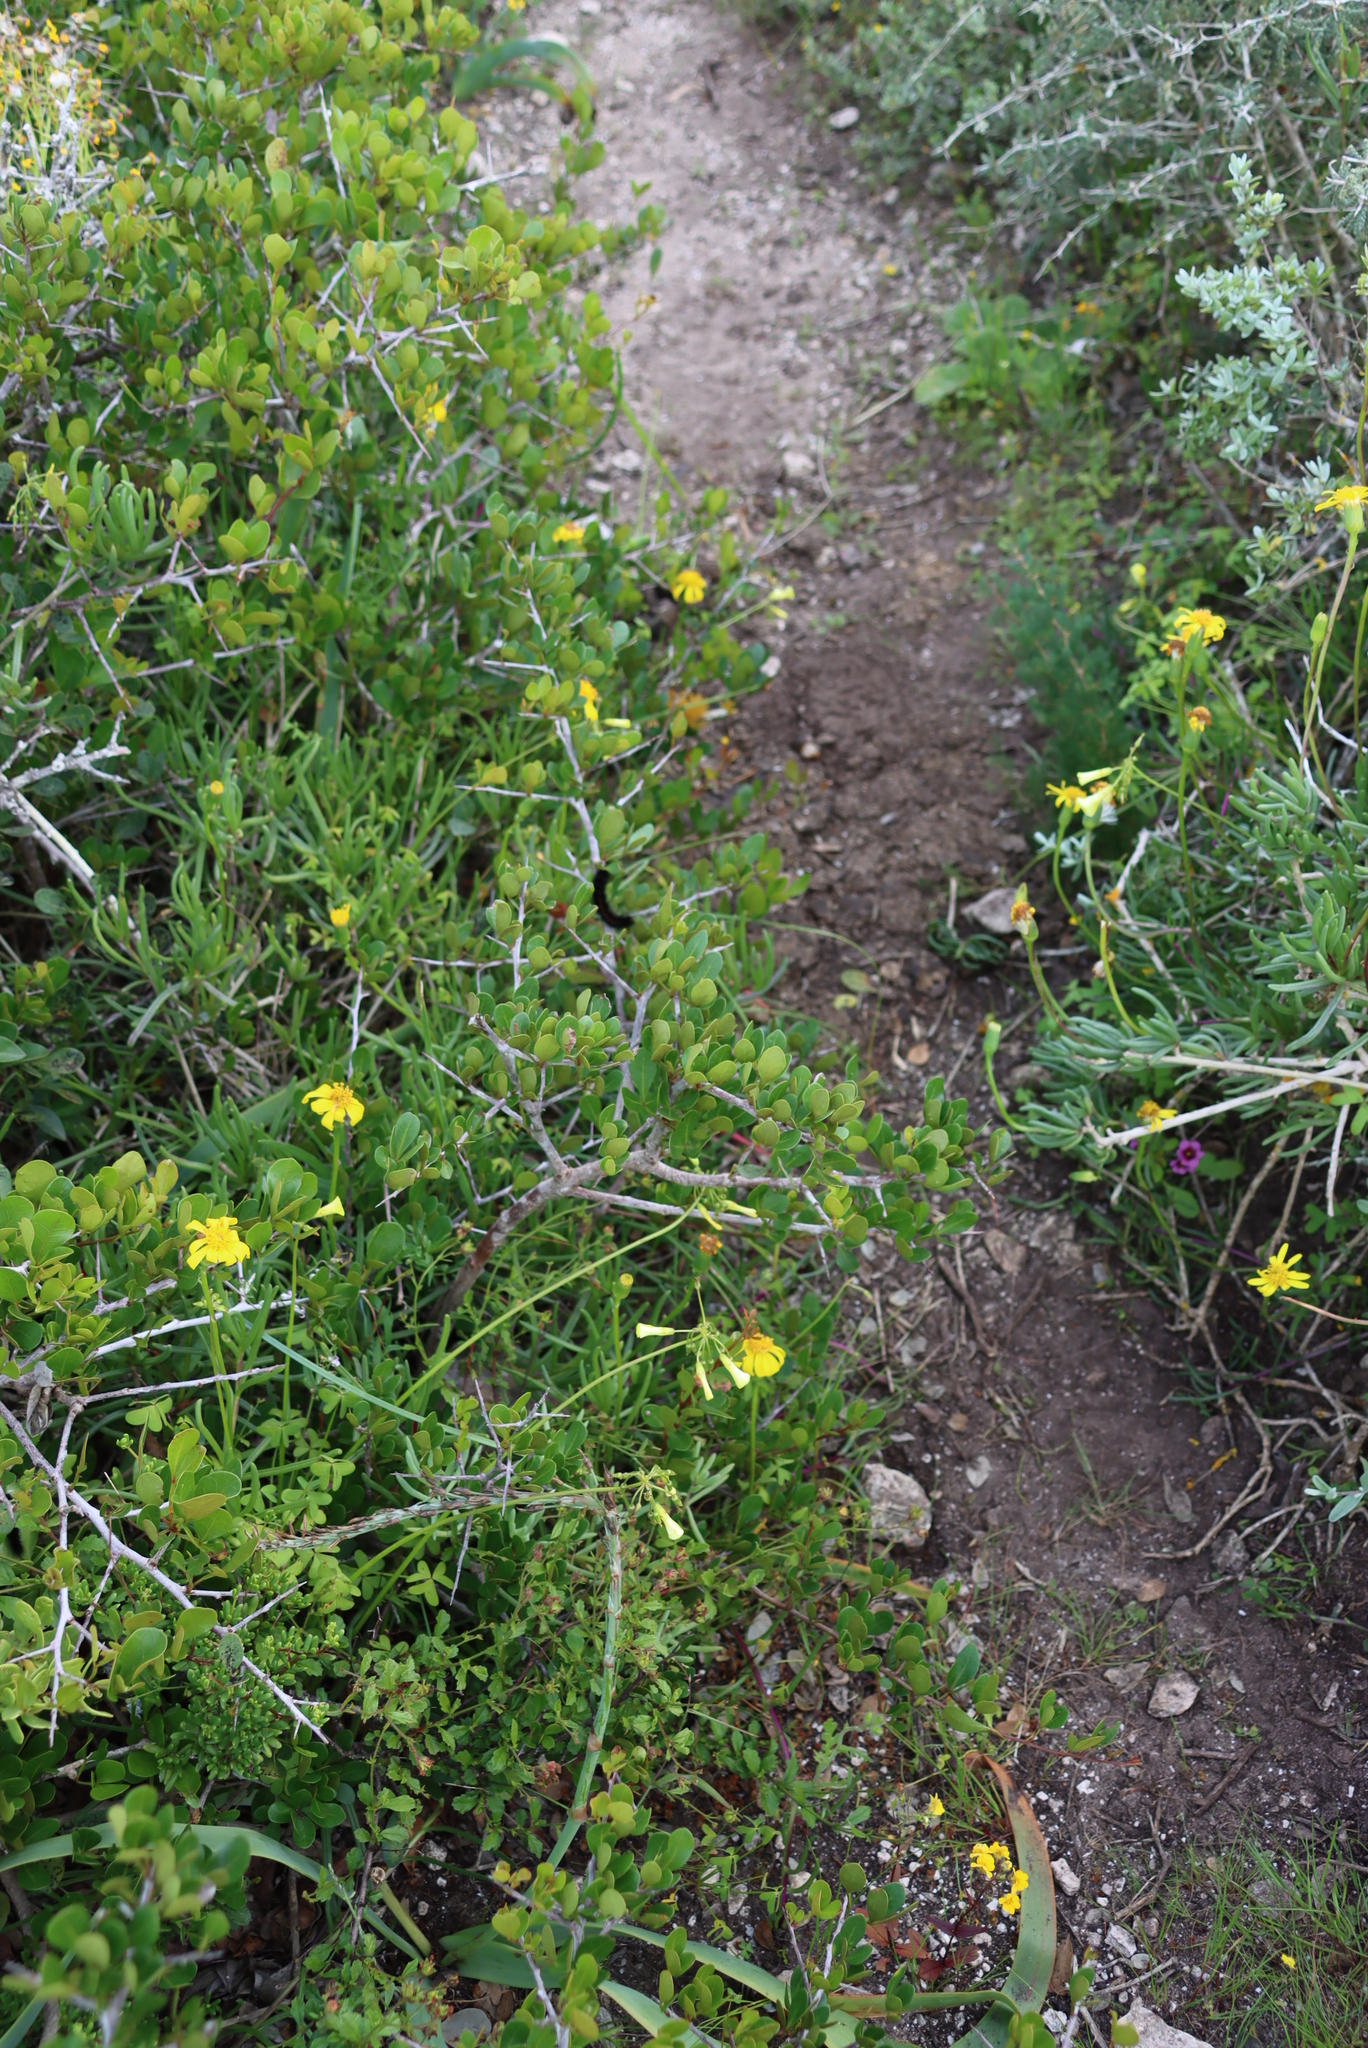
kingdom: Plantae
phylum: Tracheophyta
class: Magnoliopsida
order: Sapindales
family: Anacardiaceae
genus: Searsia
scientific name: Searsia pterota
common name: Winged currant
